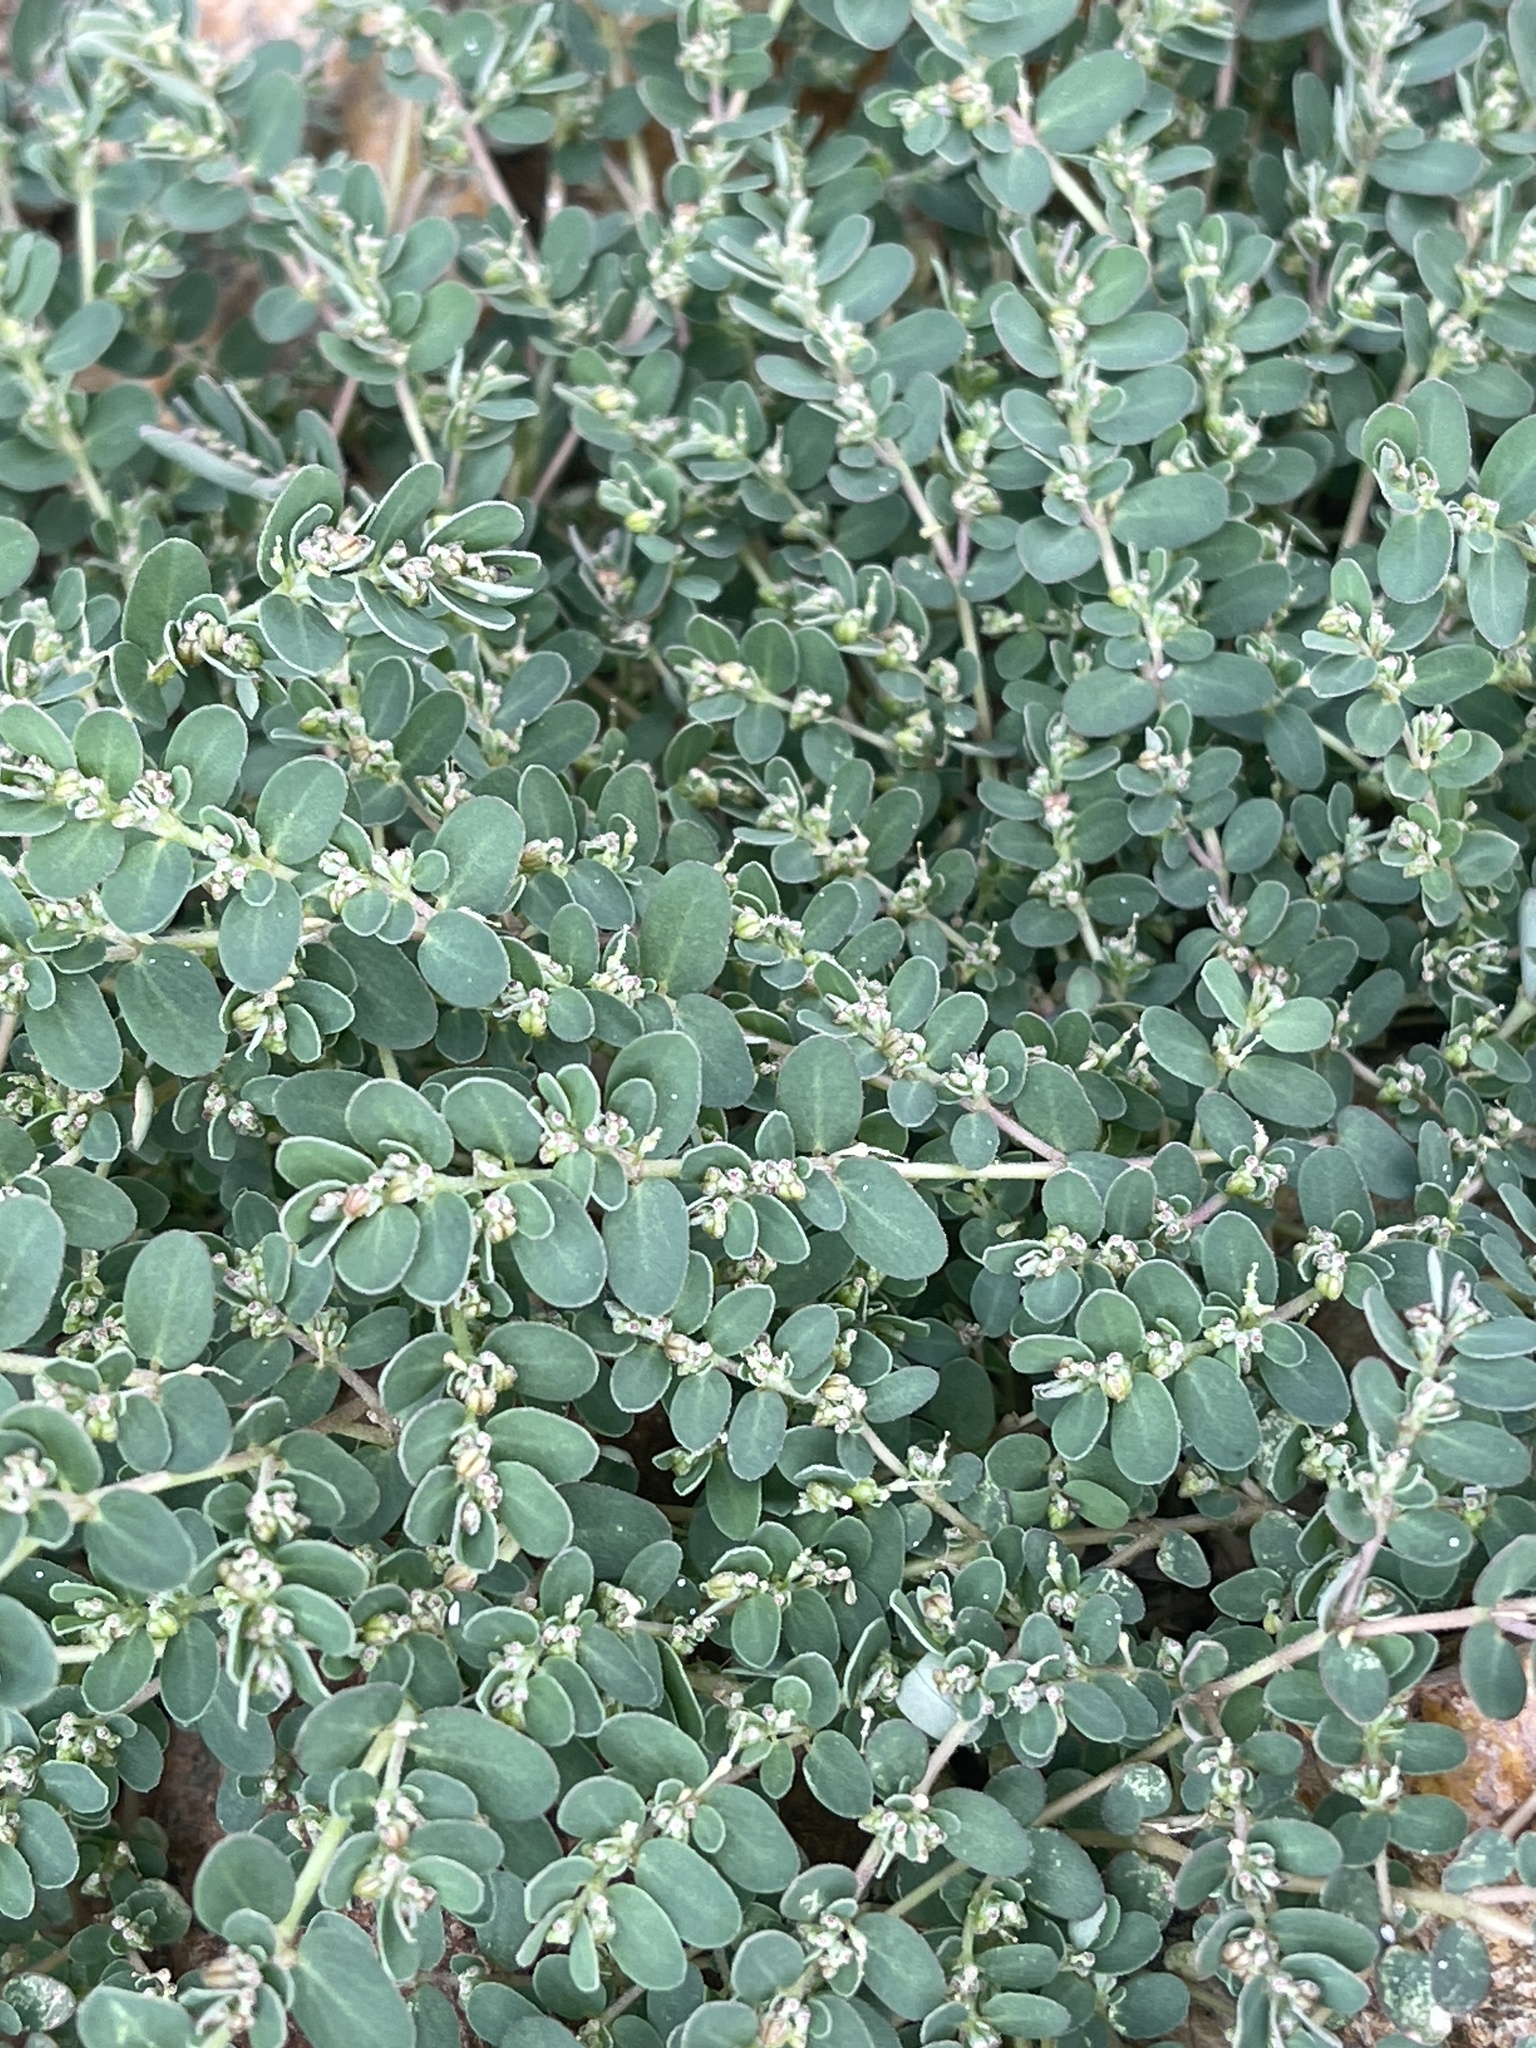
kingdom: Plantae
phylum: Tracheophyta
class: Magnoliopsida
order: Malpighiales
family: Euphorbiaceae
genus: Euphorbia
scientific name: Euphorbia prostrata
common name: Prostrate sandmat
